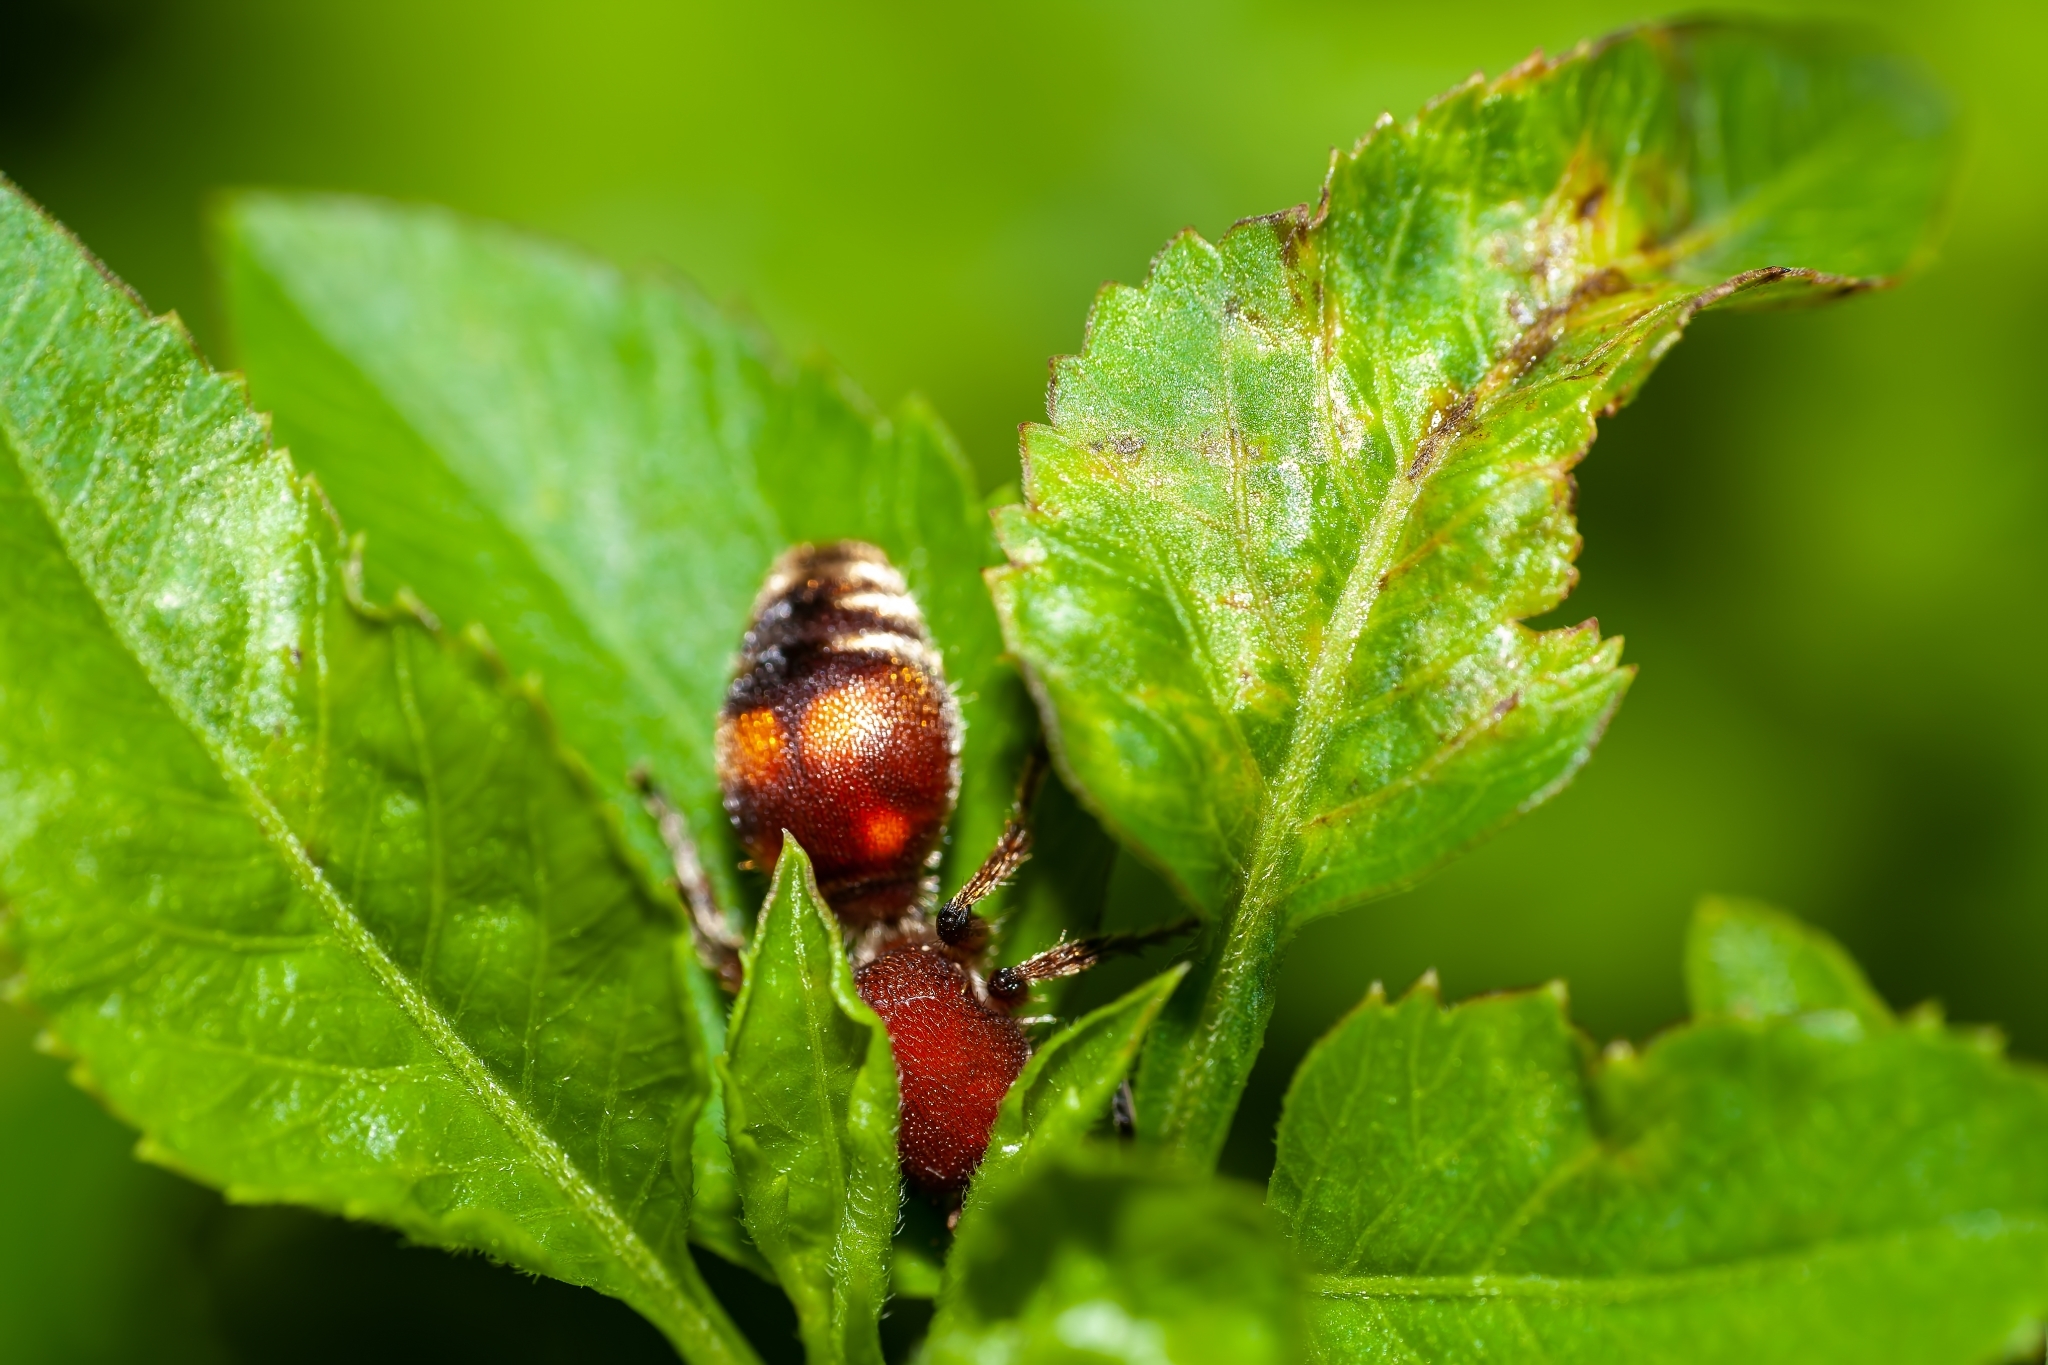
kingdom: Animalia
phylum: Arthropoda
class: Insecta
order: Hymenoptera
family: Mutillidae
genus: Dasymutilla
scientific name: Dasymutilla
